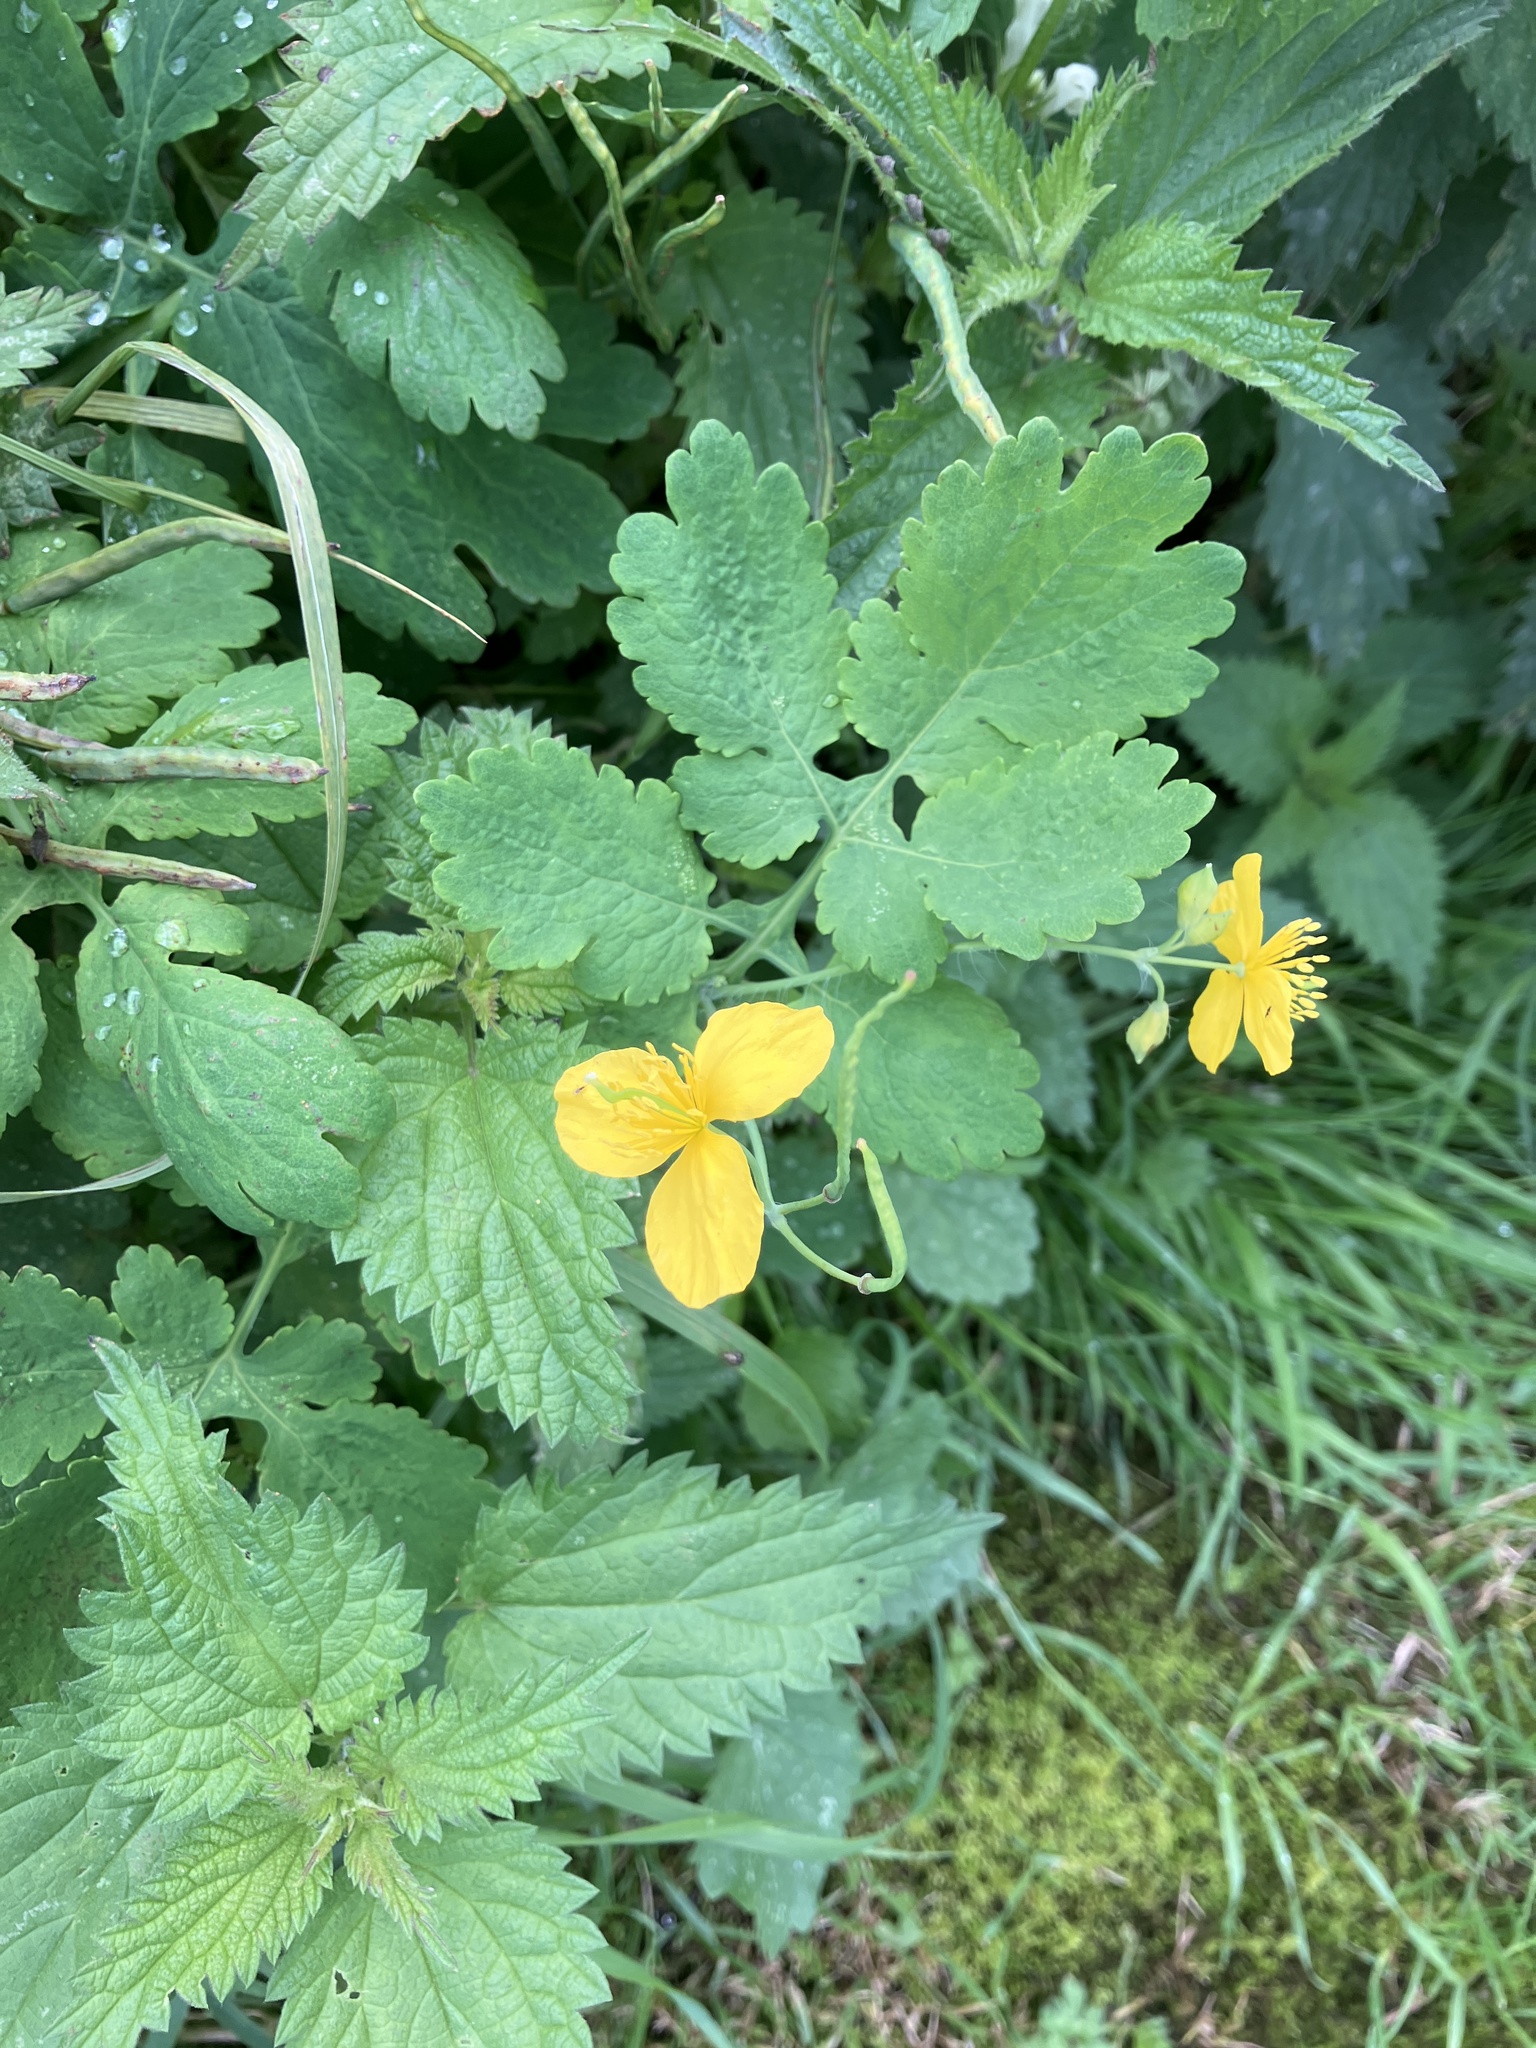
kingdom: Plantae
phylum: Tracheophyta
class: Magnoliopsida
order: Ranunculales
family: Papaveraceae
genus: Chelidonium
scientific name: Chelidonium majus
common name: Greater celandine
